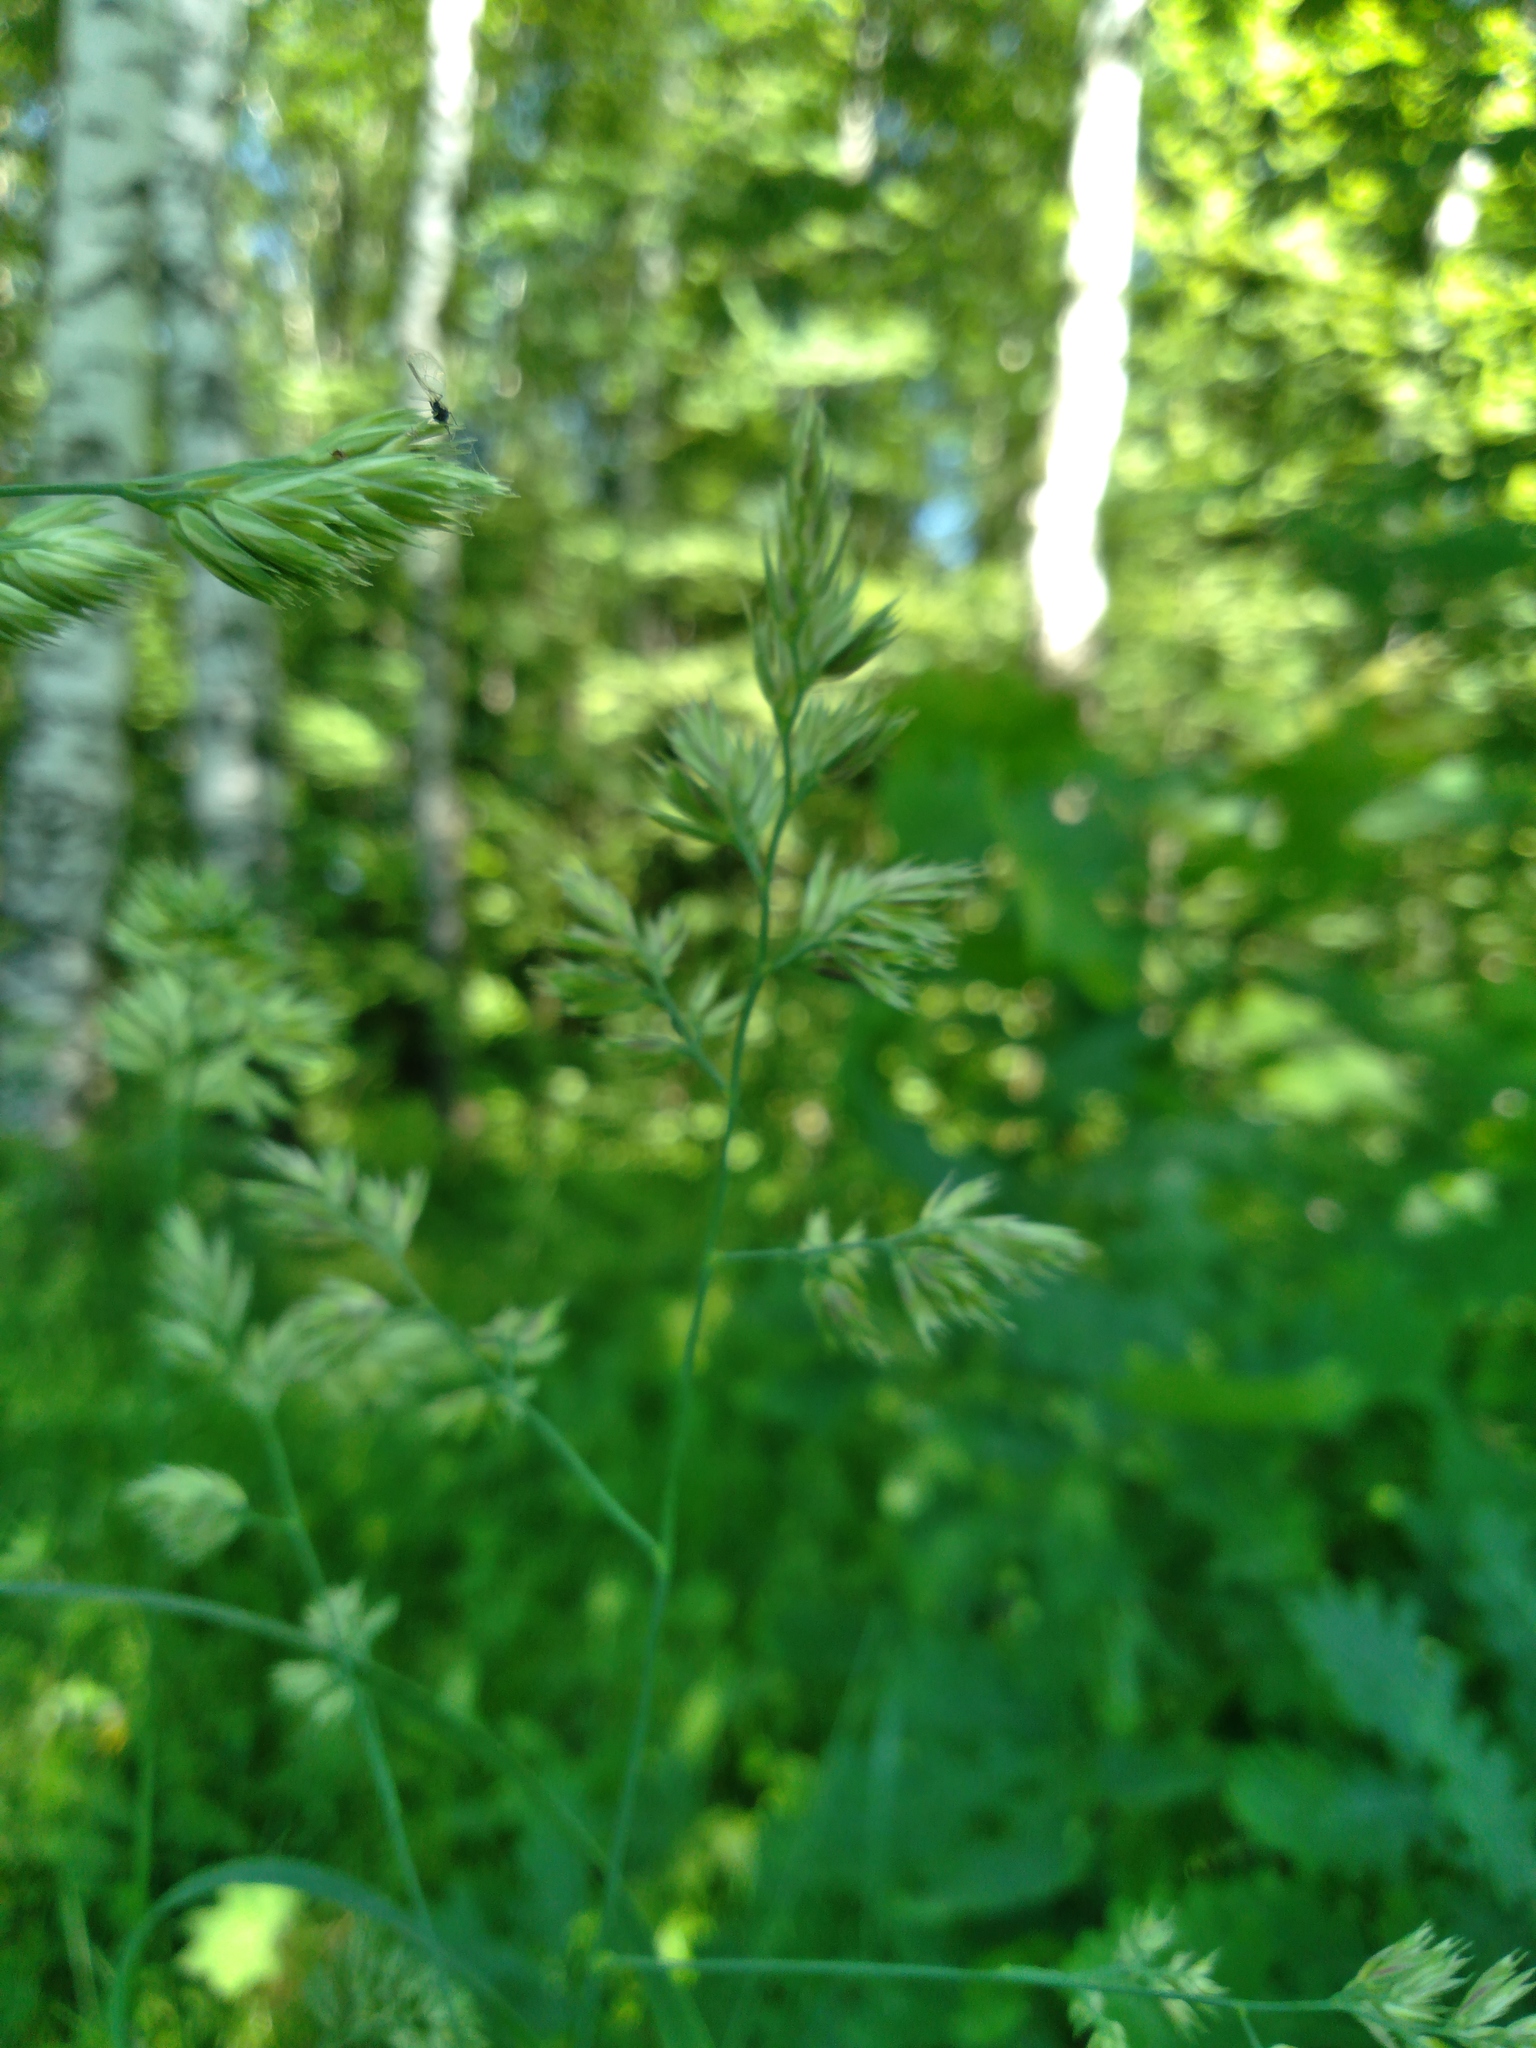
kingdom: Plantae
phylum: Tracheophyta
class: Liliopsida
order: Poales
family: Poaceae
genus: Dactylis
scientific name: Dactylis glomerata
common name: Orchardgrass
